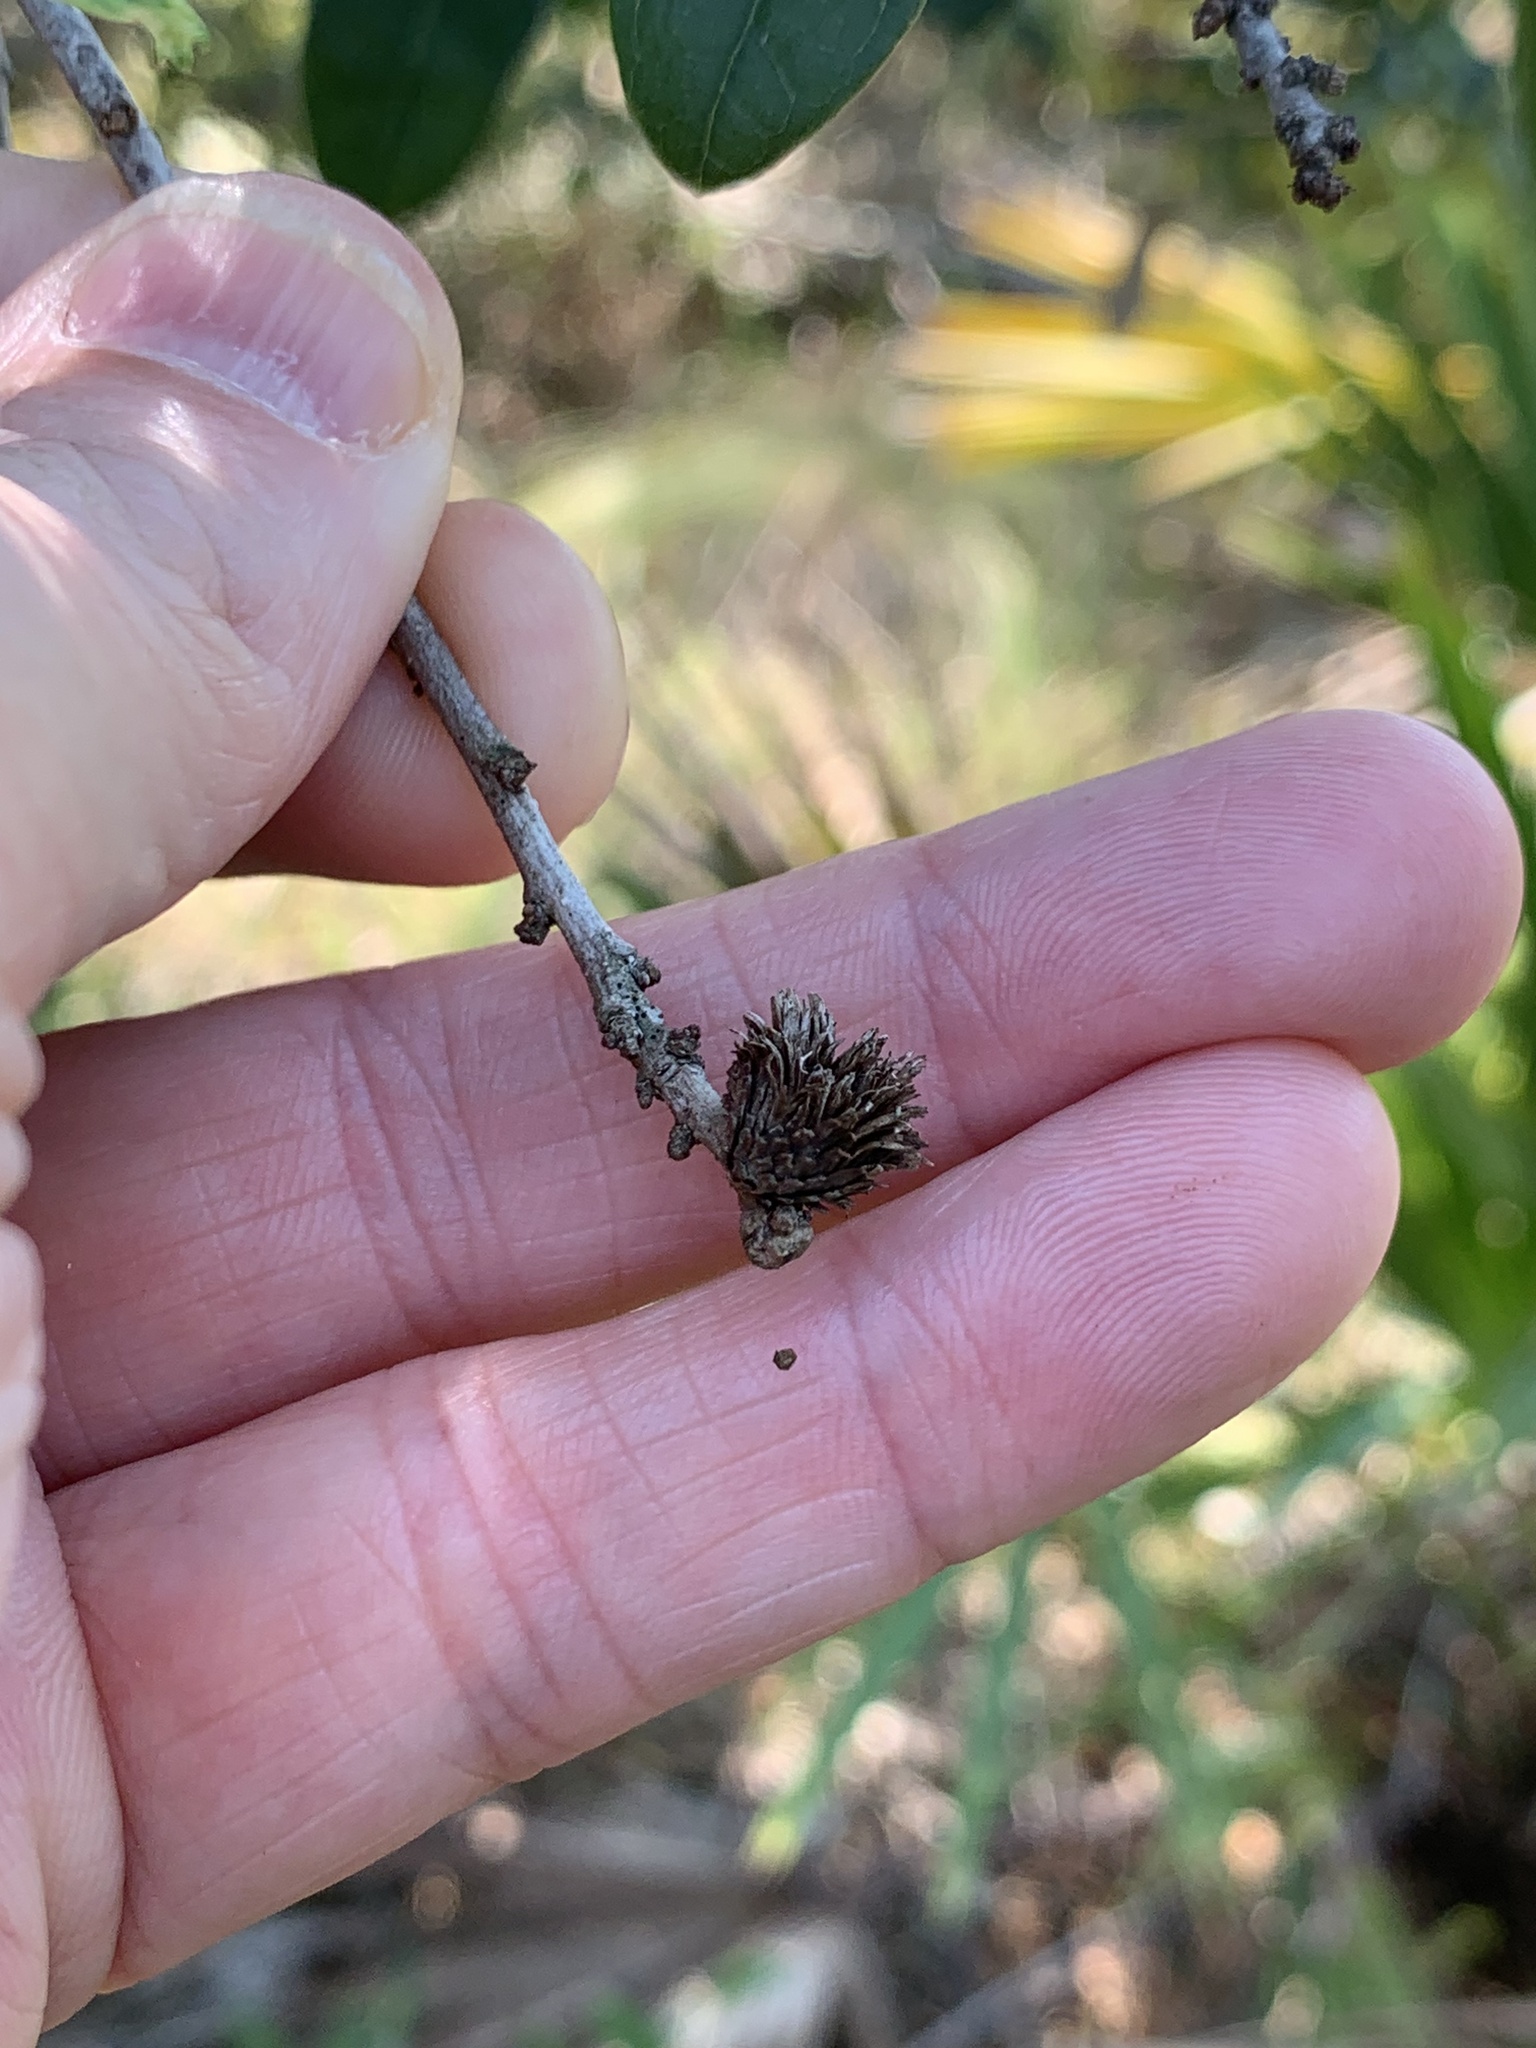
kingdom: Animalia
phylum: Arthropoda
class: Insecta
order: Hymenoptera
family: Cynipidae
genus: Andricus
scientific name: Andricus quercusfoliatus
